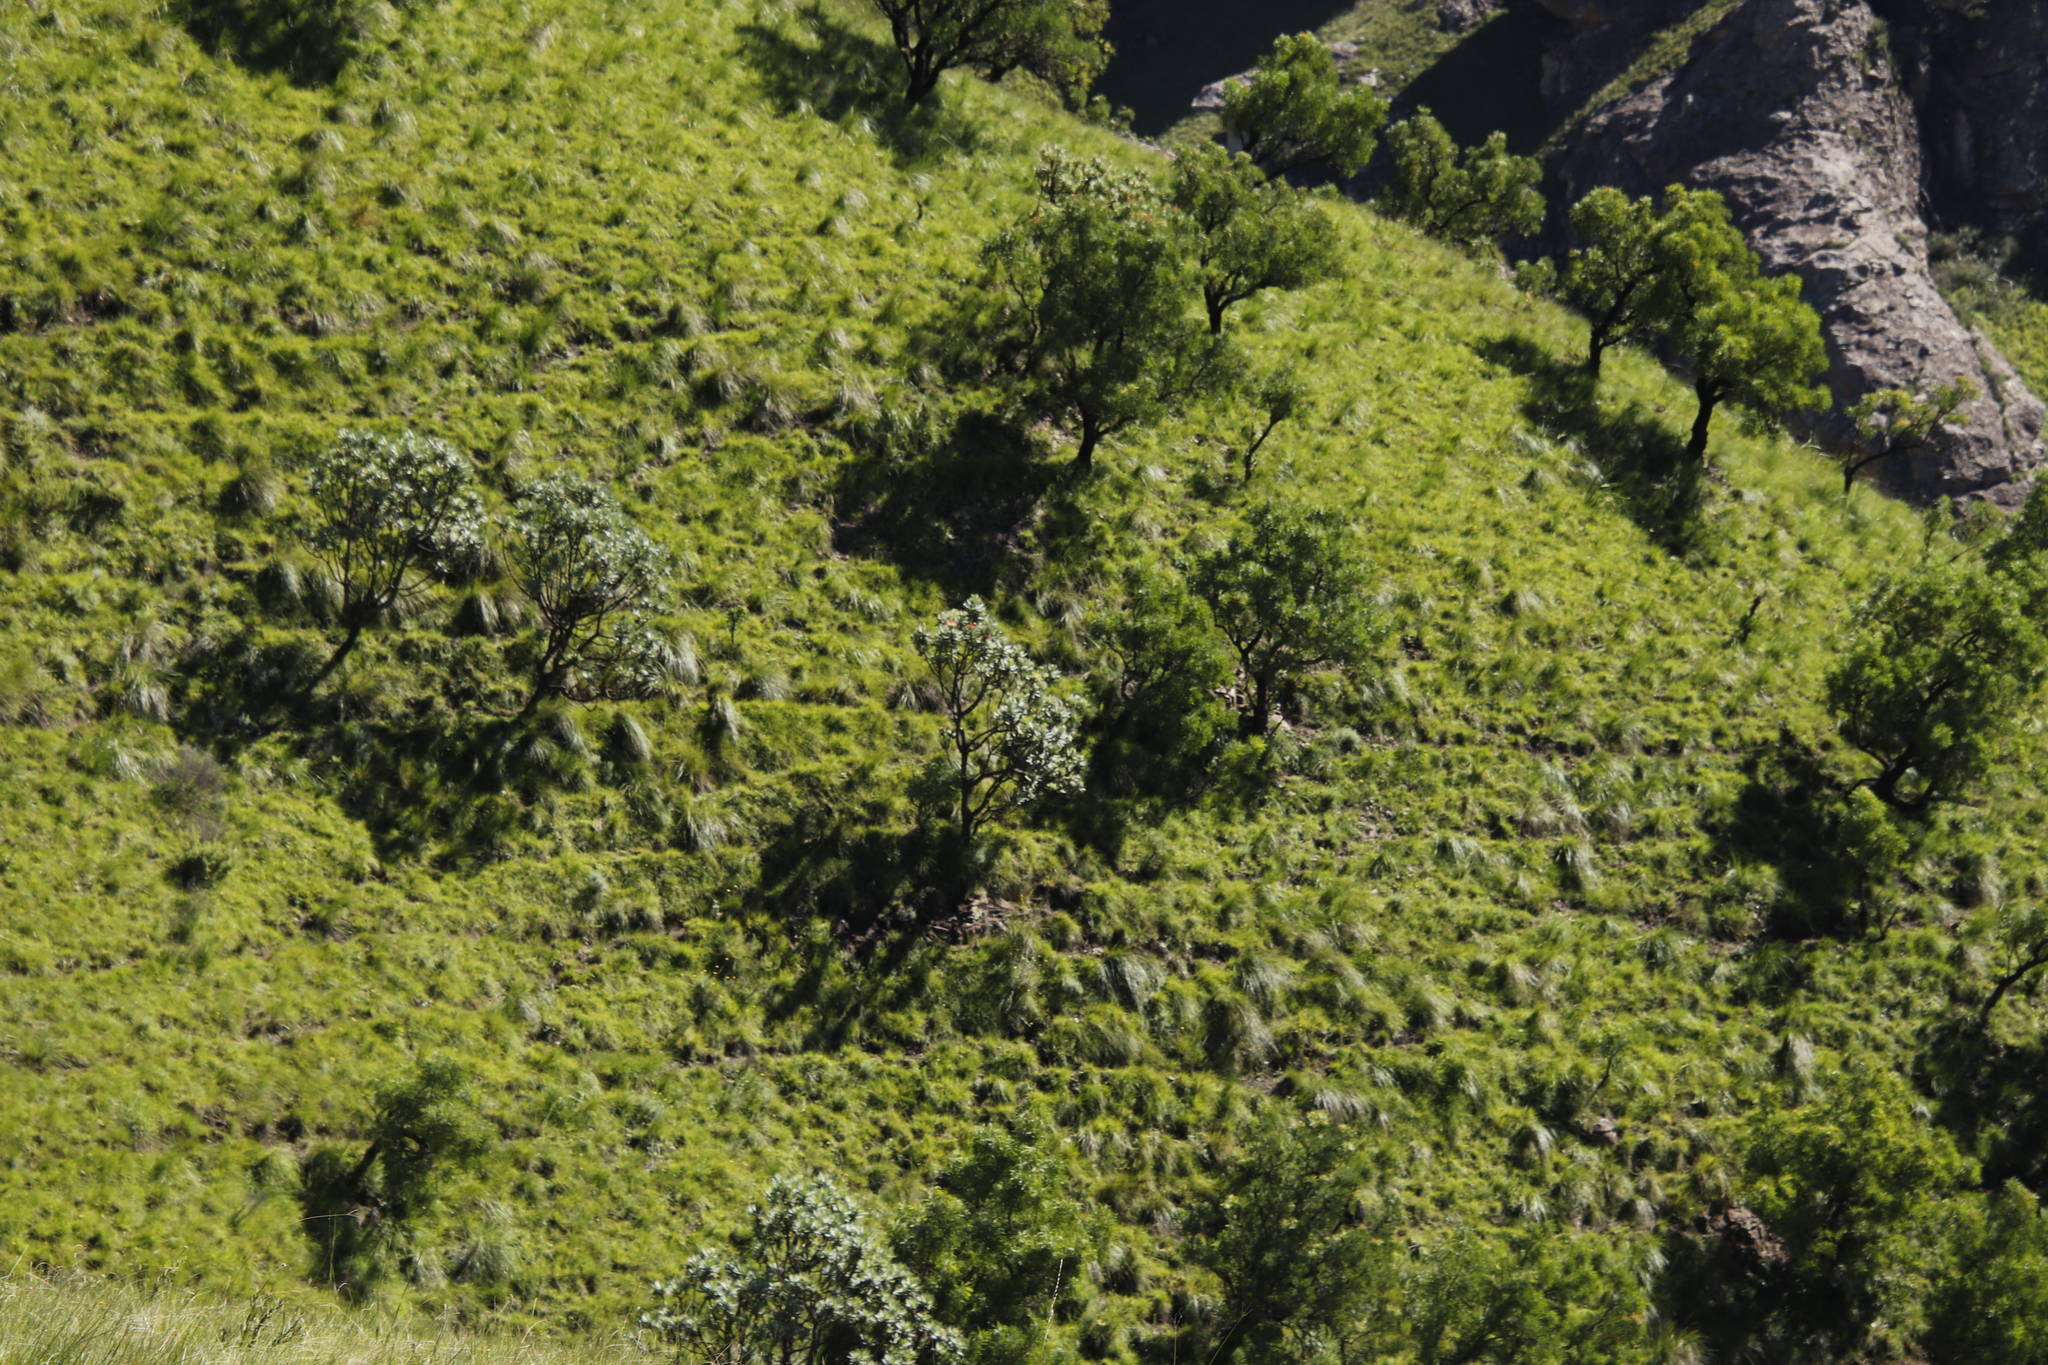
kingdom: Plantae
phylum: Tracheophyta
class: Magnoliopsida
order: Proteales
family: Proteaceae
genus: Protea
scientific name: Protea caffra
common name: Common sugarbush
